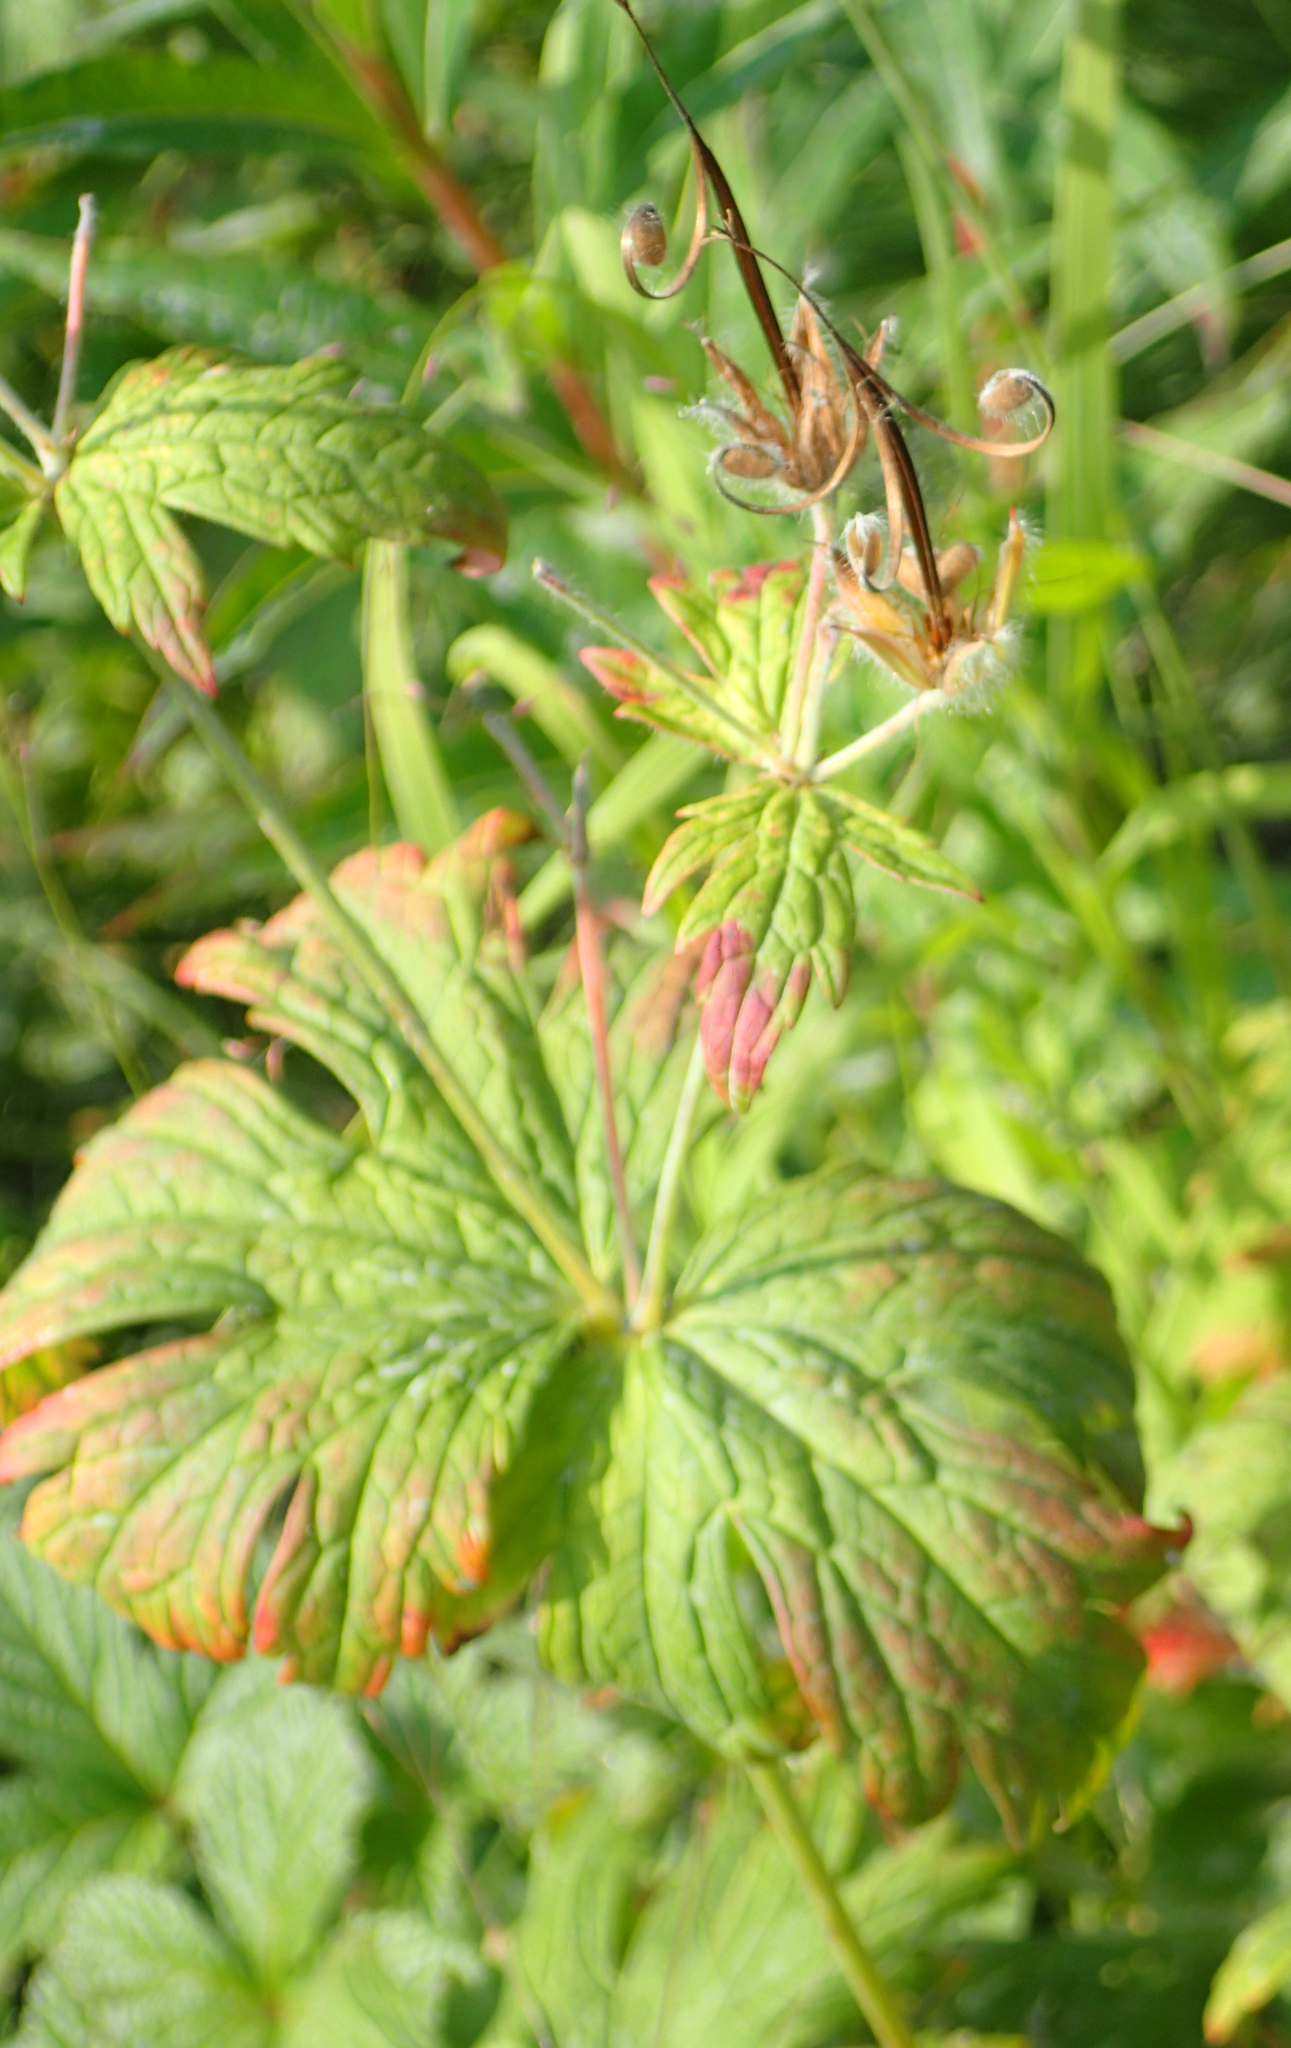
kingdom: Plantae
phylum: Tracheophyta
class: Magnoliopsida
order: Geraniales
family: Geraniaceae
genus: Geranium
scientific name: Geranium erianthum
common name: Northern crane's-bill
